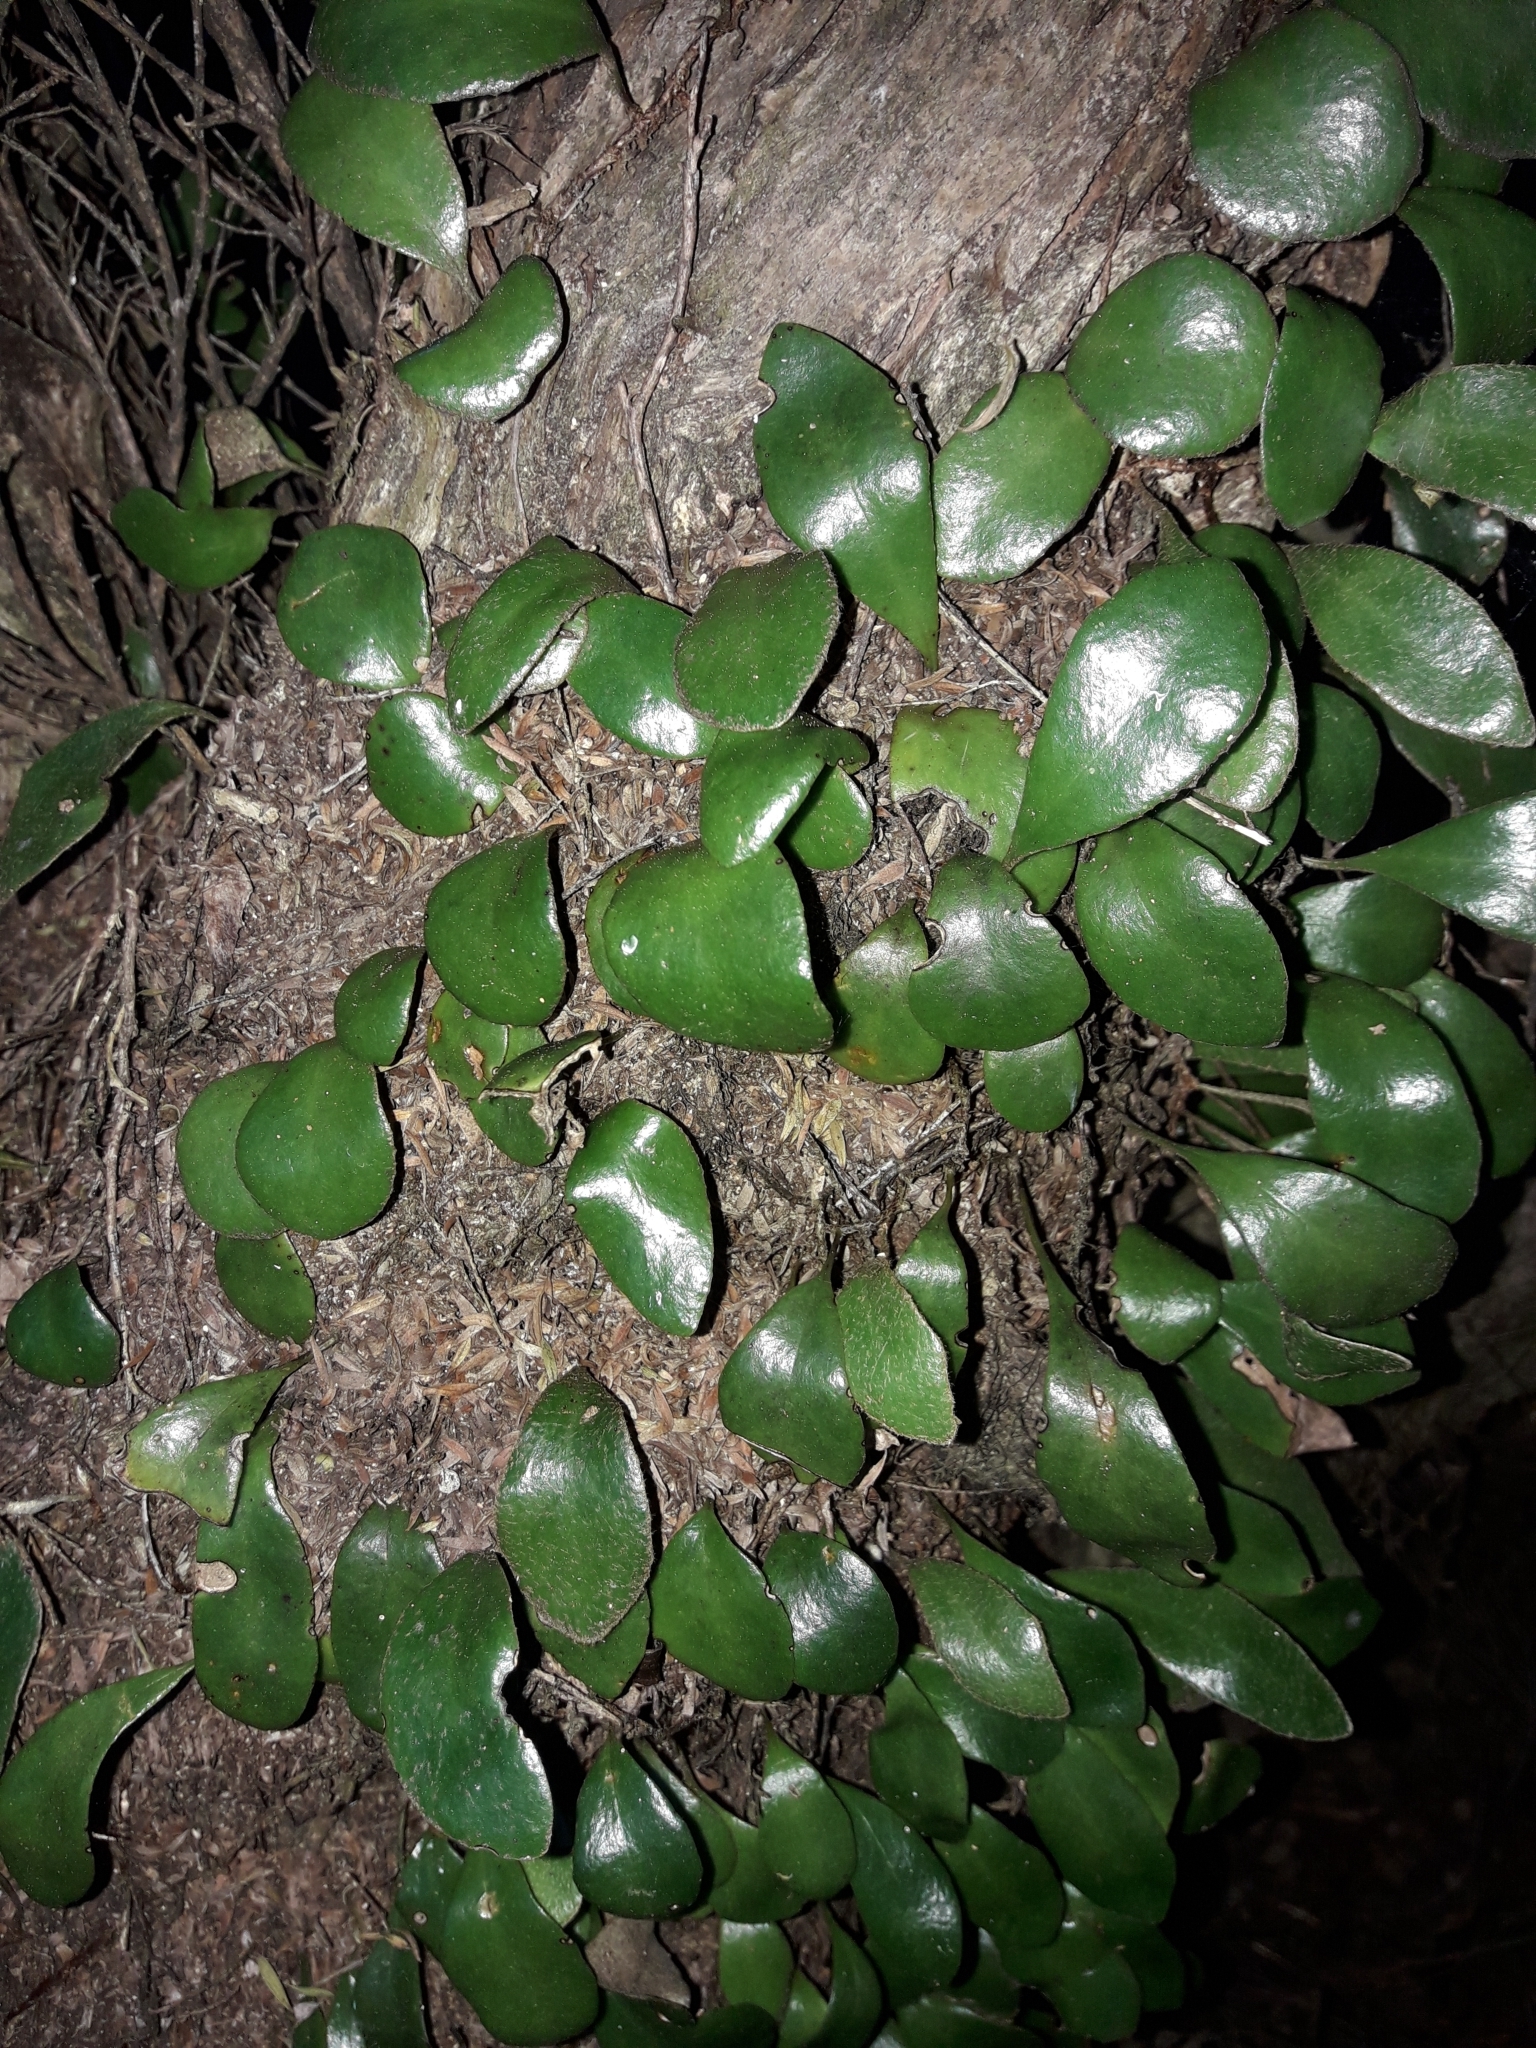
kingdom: Plantae
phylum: Tracheophyta
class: Polypodiopsida
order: Polypodiales
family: Polypodiaceae
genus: Pyrrosia
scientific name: Pyrrosia eleagnifolia
